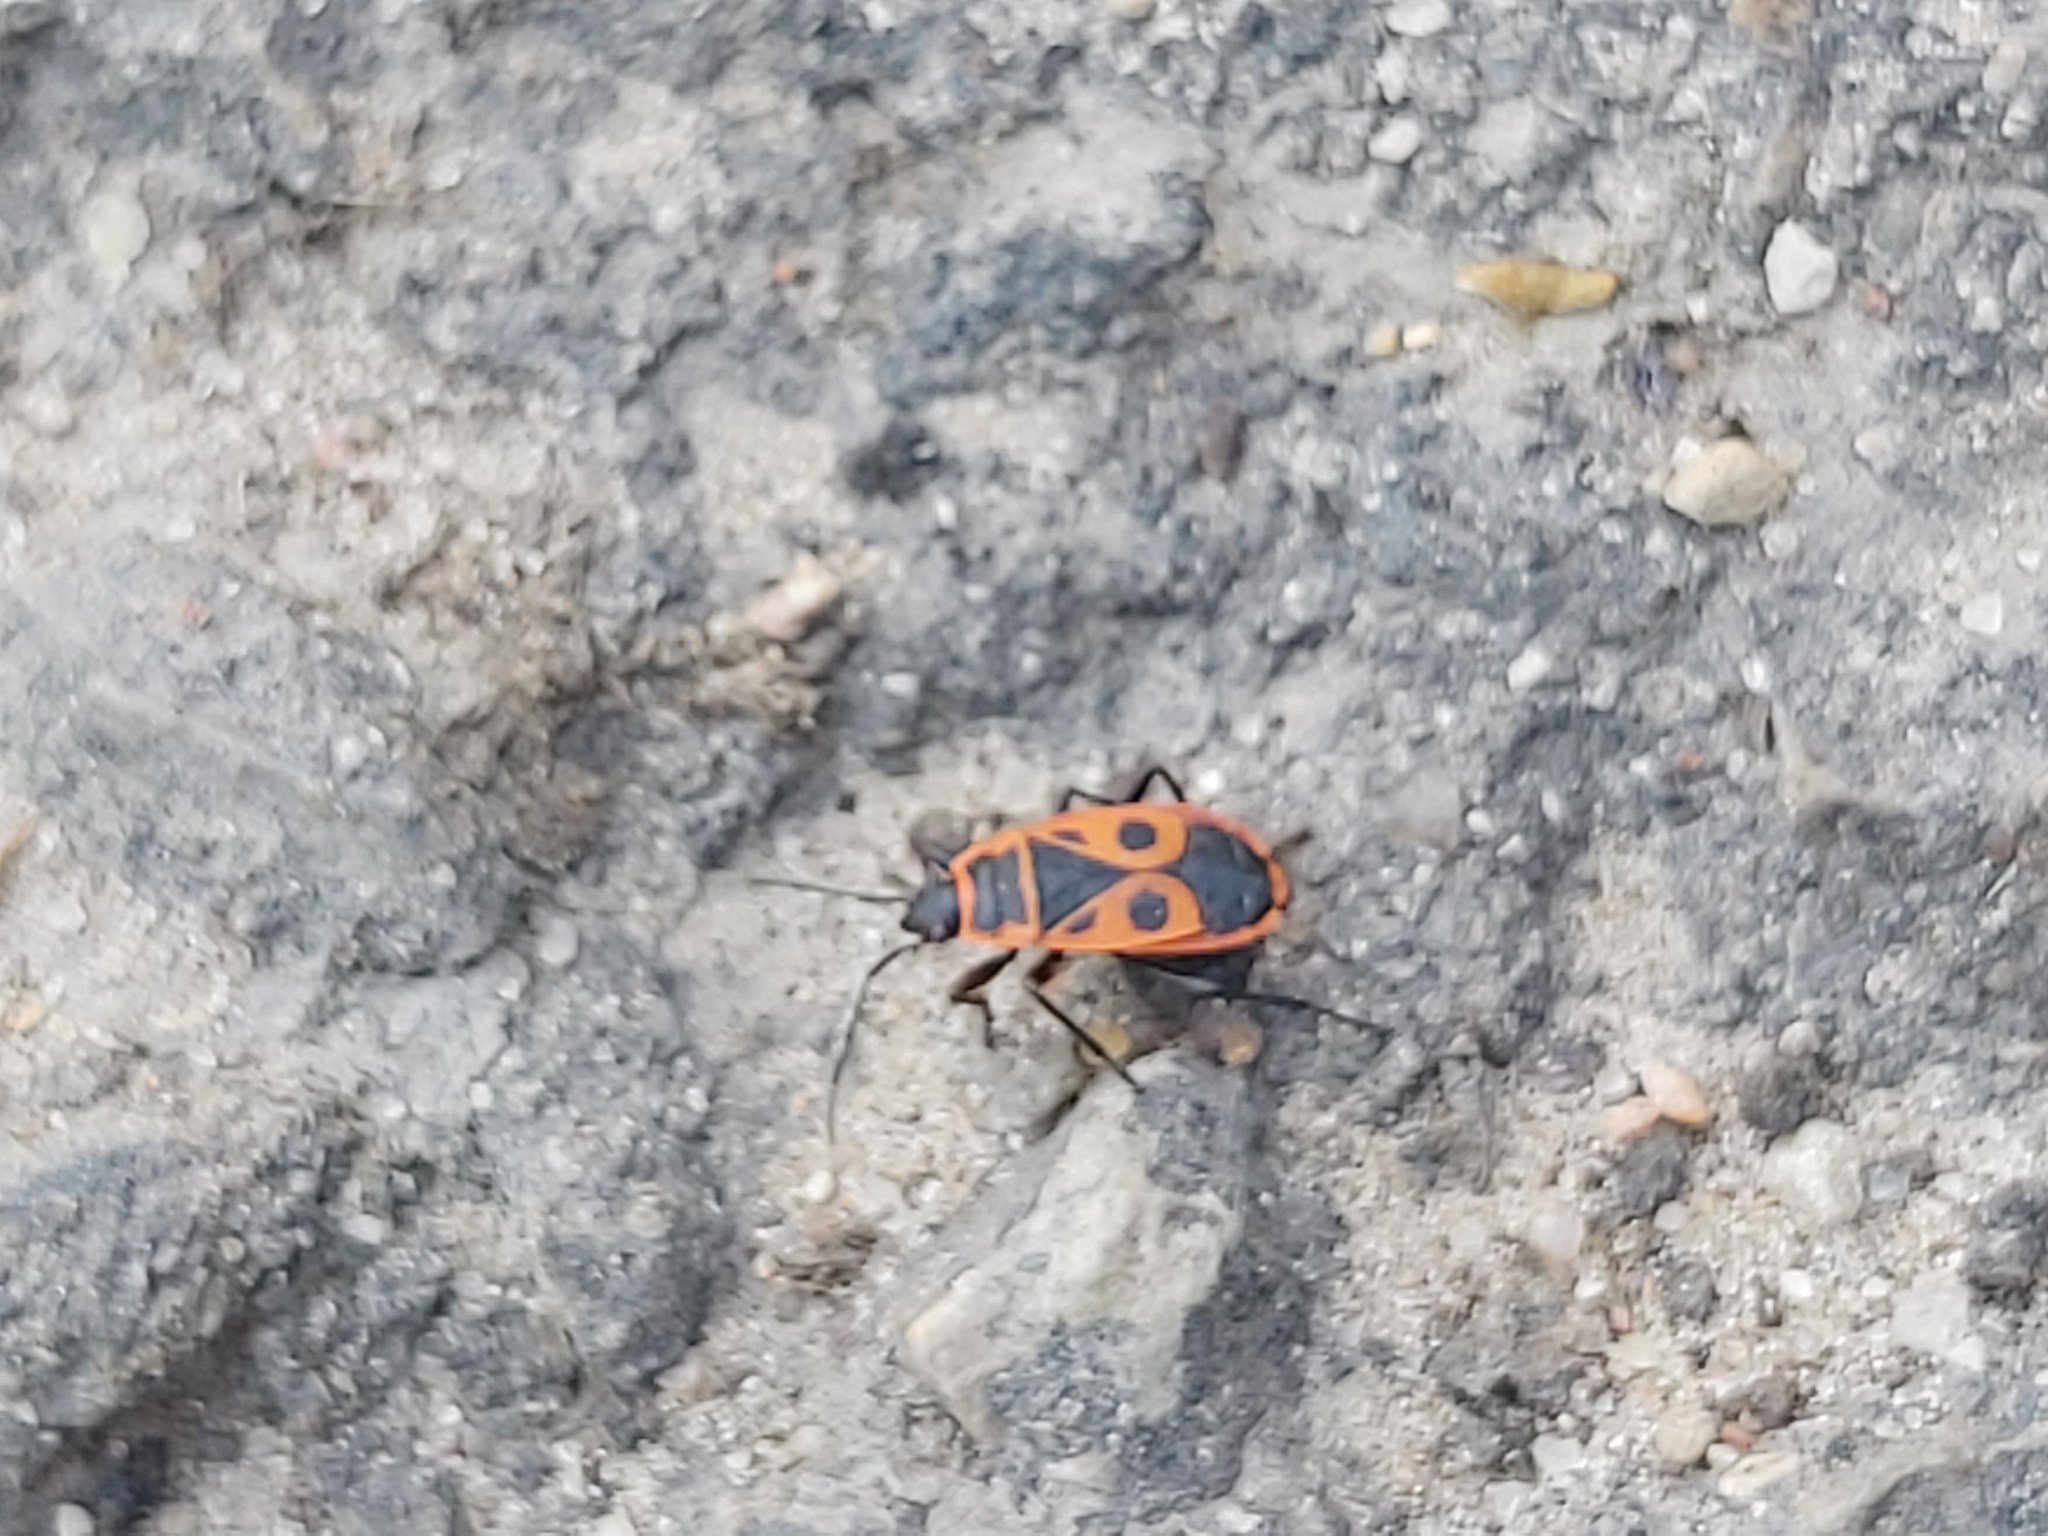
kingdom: Animalia
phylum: Arthropoda
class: Insecta
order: Hemiptera
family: Pyrrhocoridae
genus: Pyrrhocoris
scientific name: Pyrrhocoris apterus
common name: Firebug
